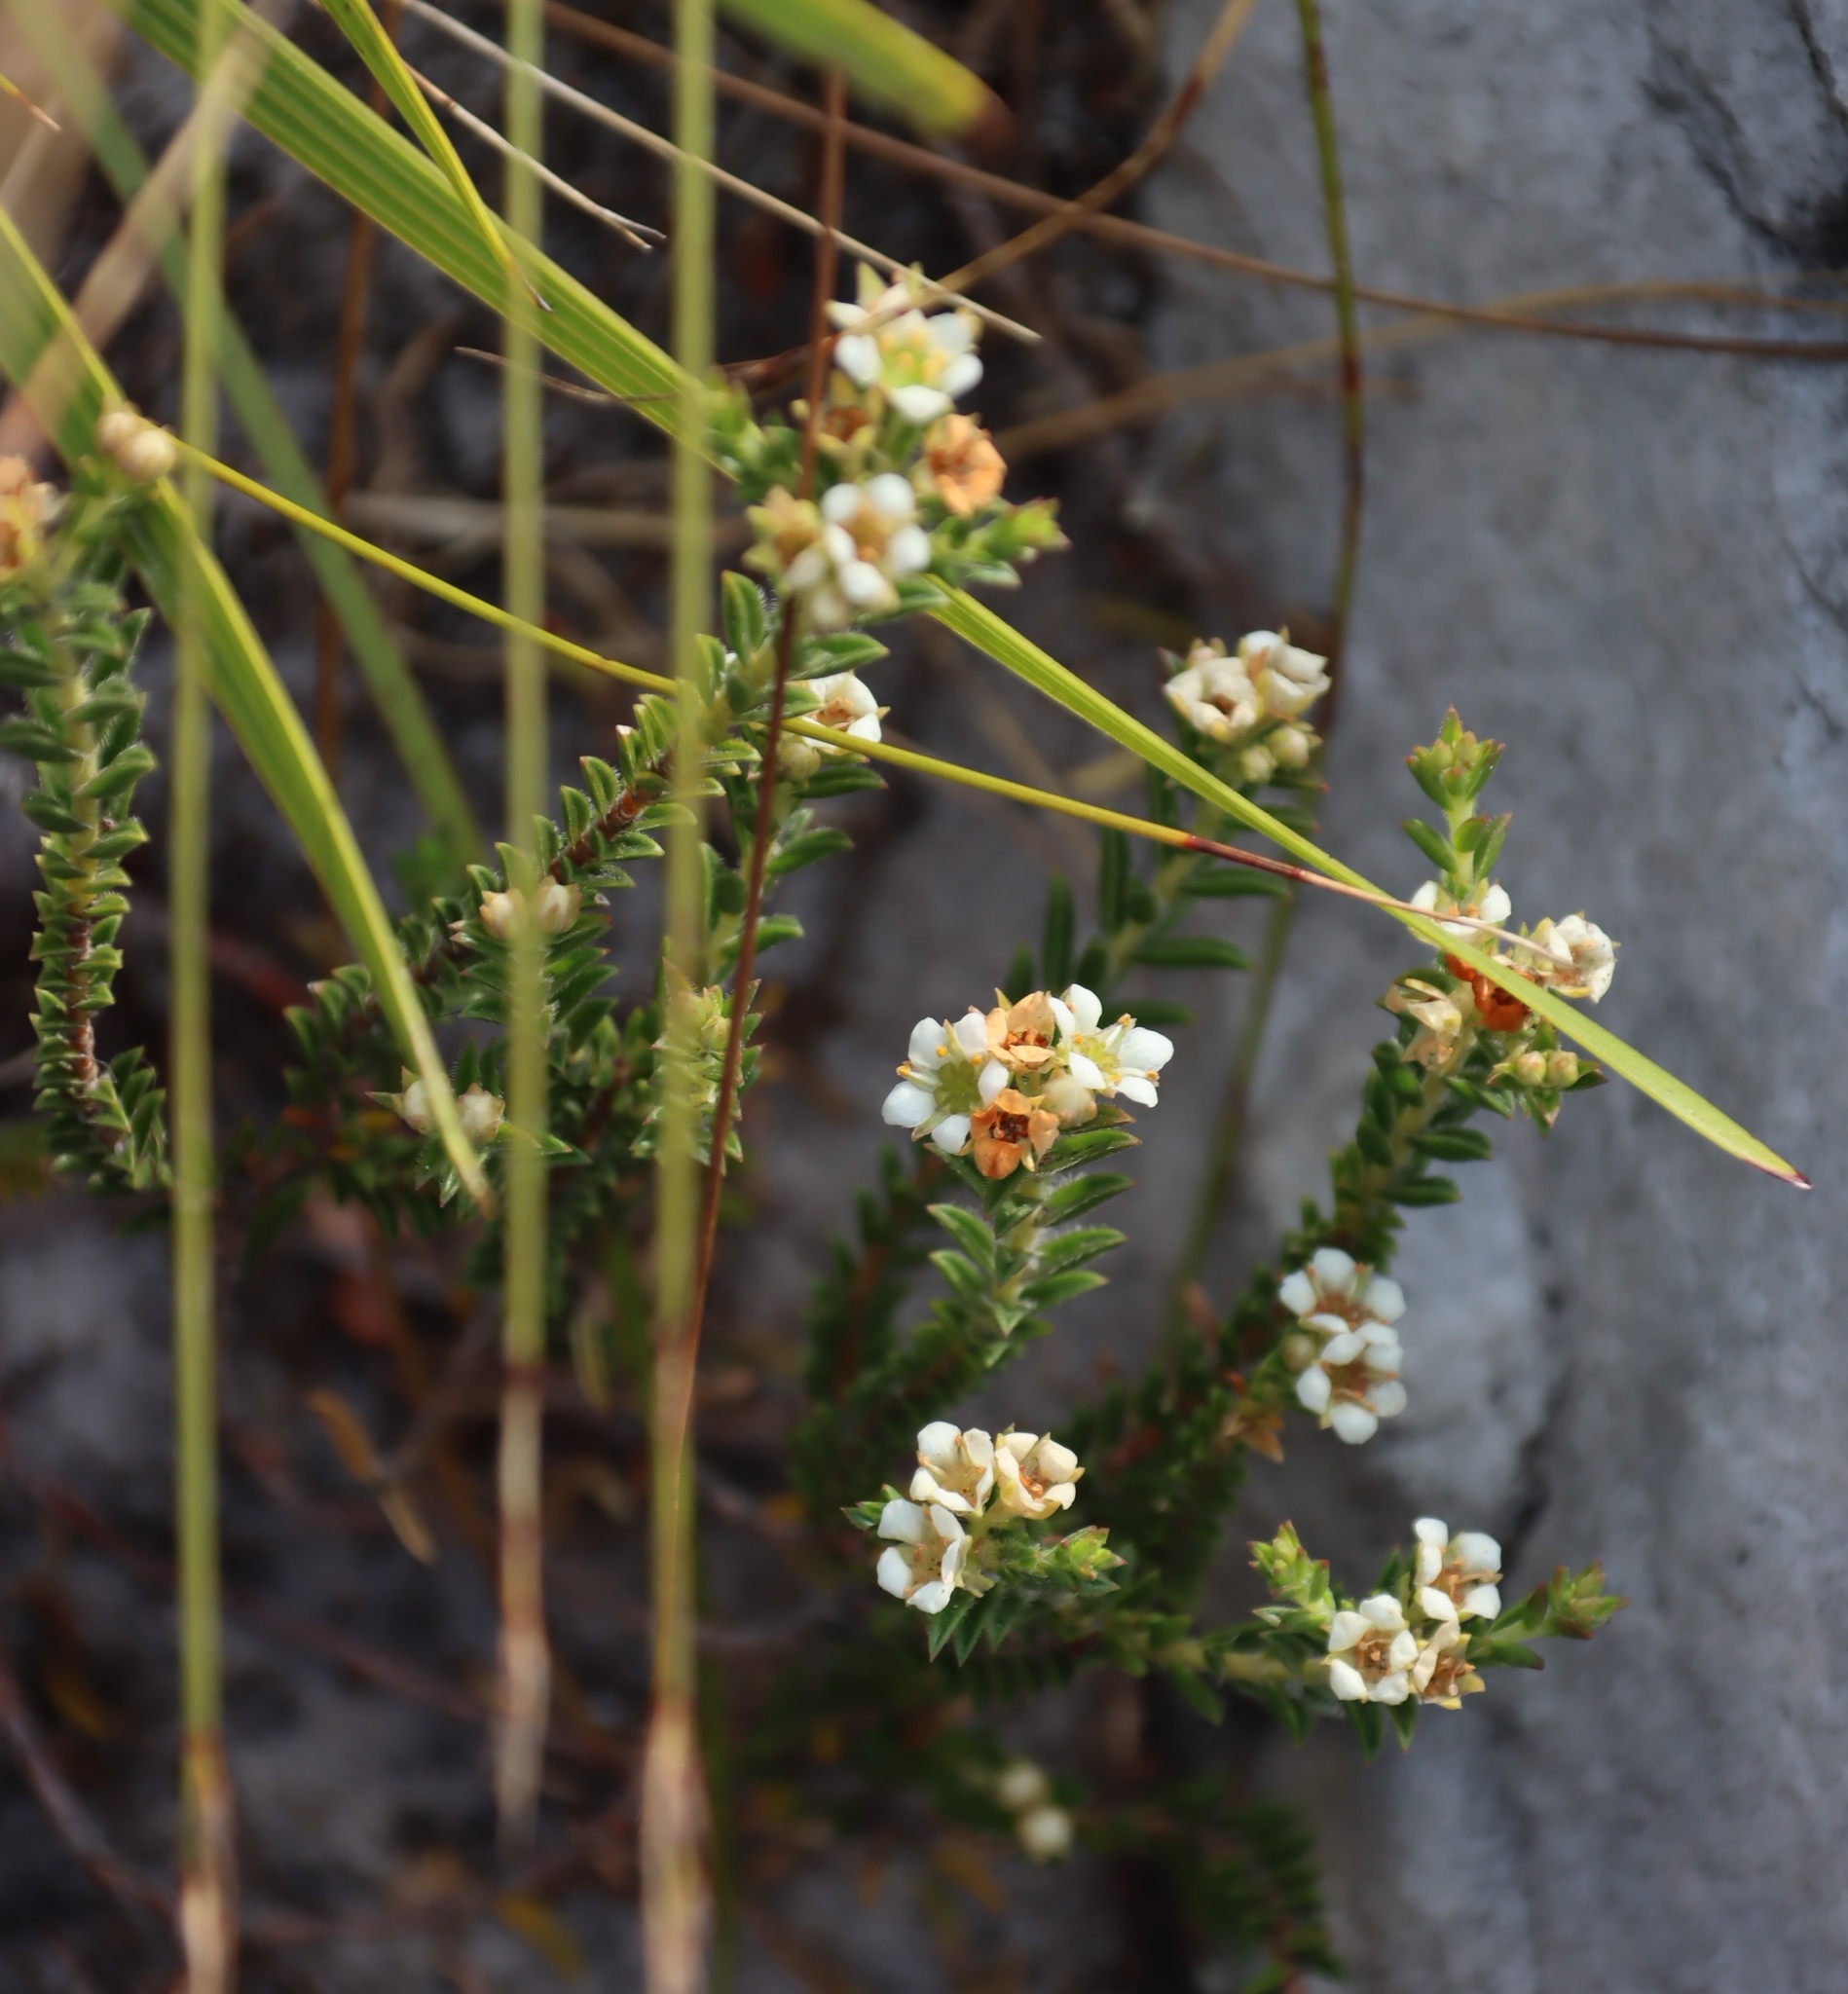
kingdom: Plantae
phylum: Tracheophyta
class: Magnoliopsida
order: Sapindales
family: Rutaceae
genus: Diosma
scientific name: Diosma oppositifolia
